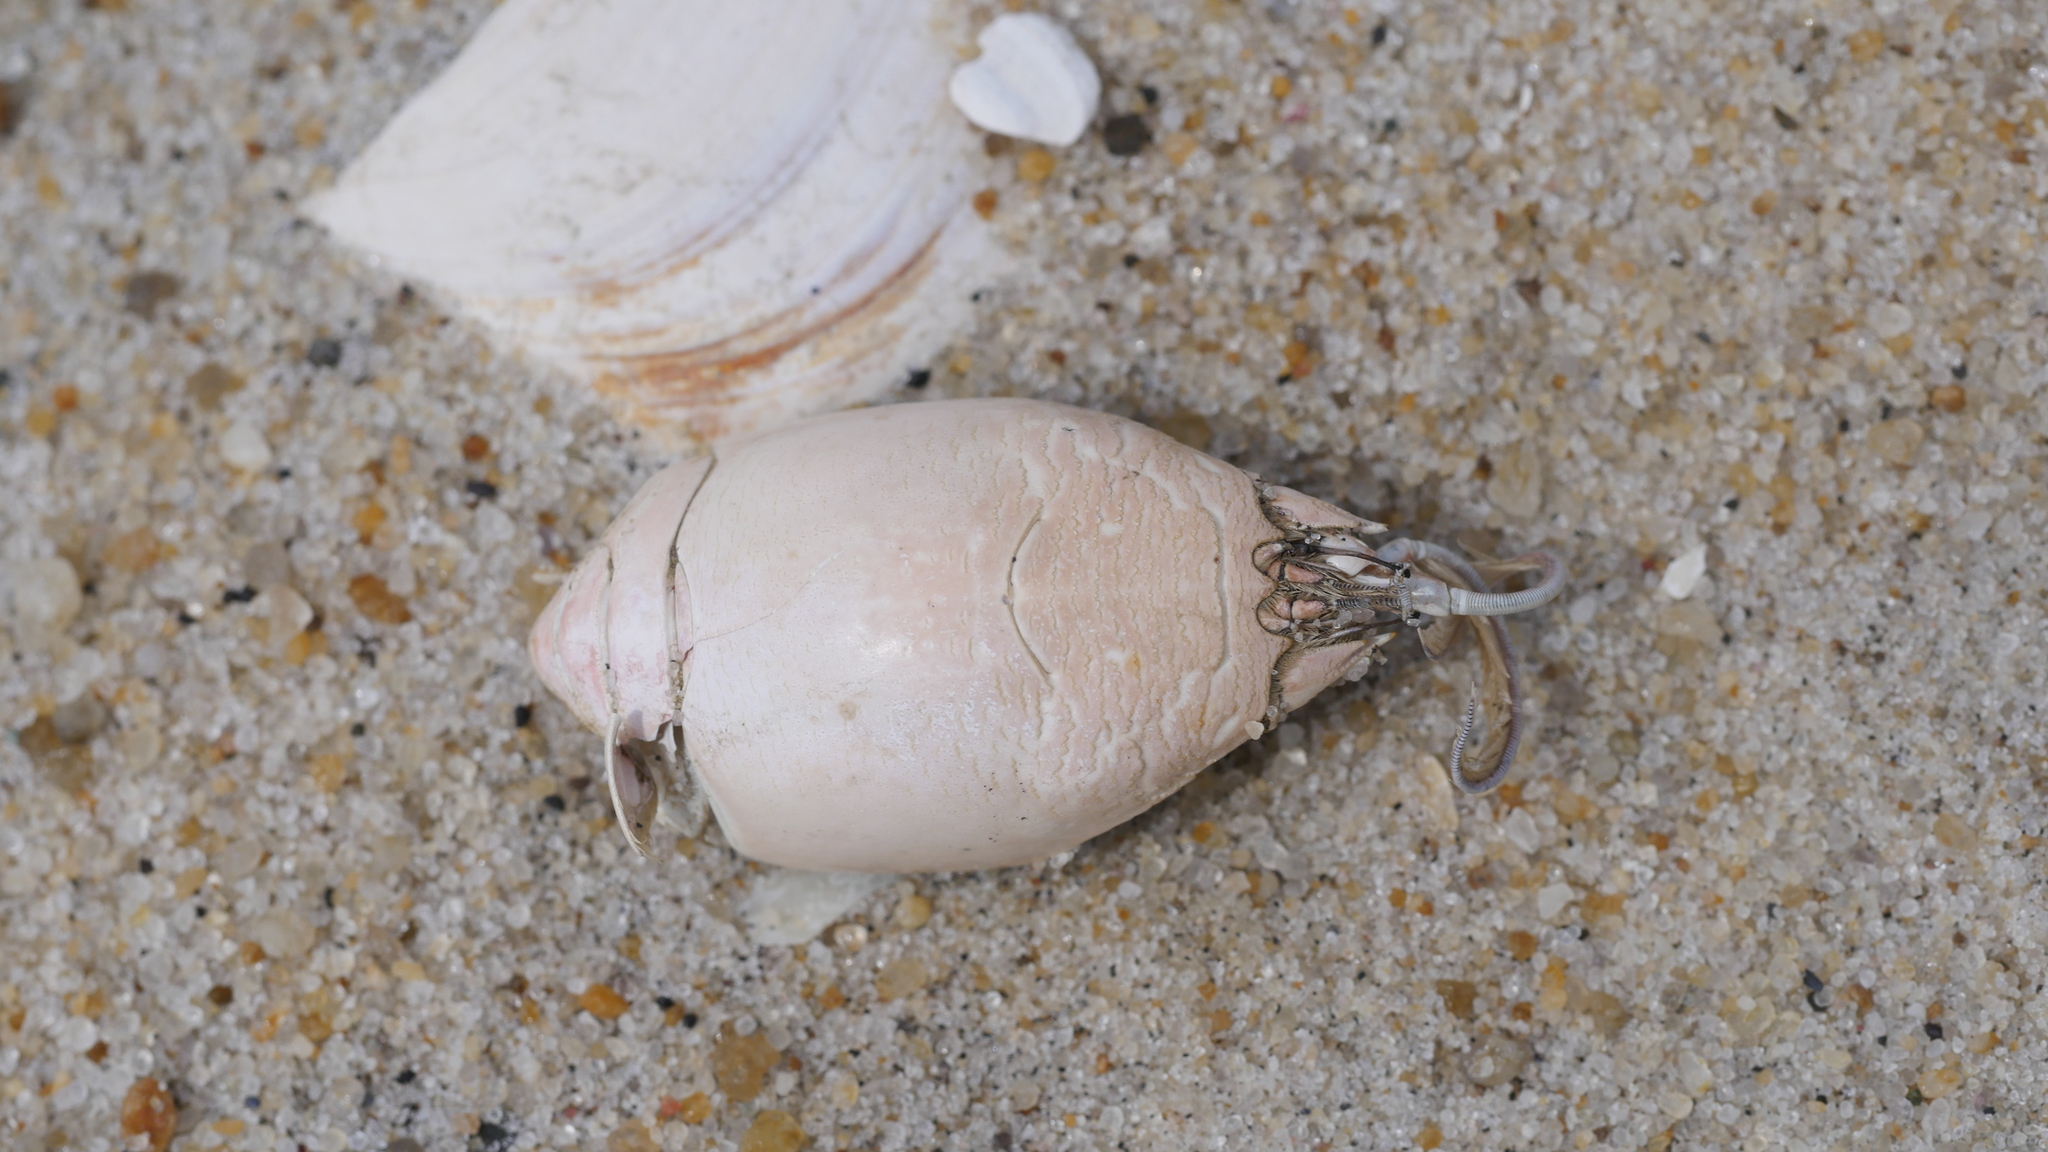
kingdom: Animalia
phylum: Arthropoda
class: Malacostraca
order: Decapoda
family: Hippidae
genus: Emerita
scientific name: Emerita talpoida
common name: Atlantic sand crab
